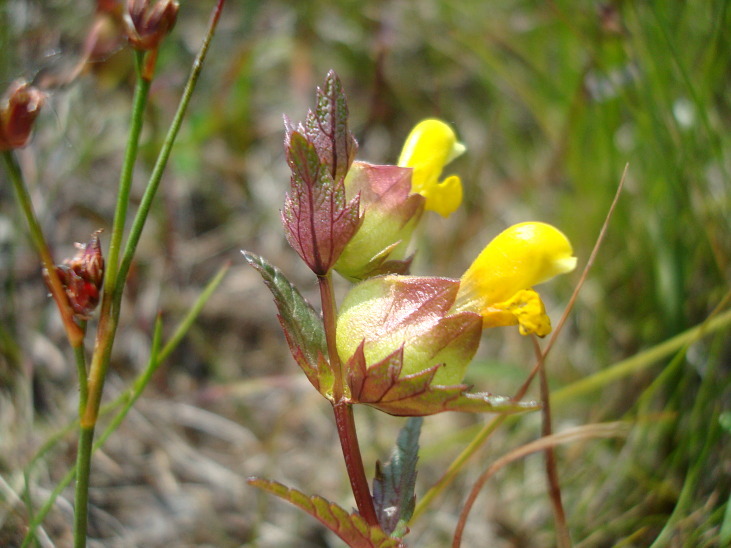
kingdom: Plantae
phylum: Tracheophyta
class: Magnoliopsida
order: Lamiales
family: Orobanchaceae
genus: Rhinanthus
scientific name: Rhinanthus minor
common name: Yellow-rattle
